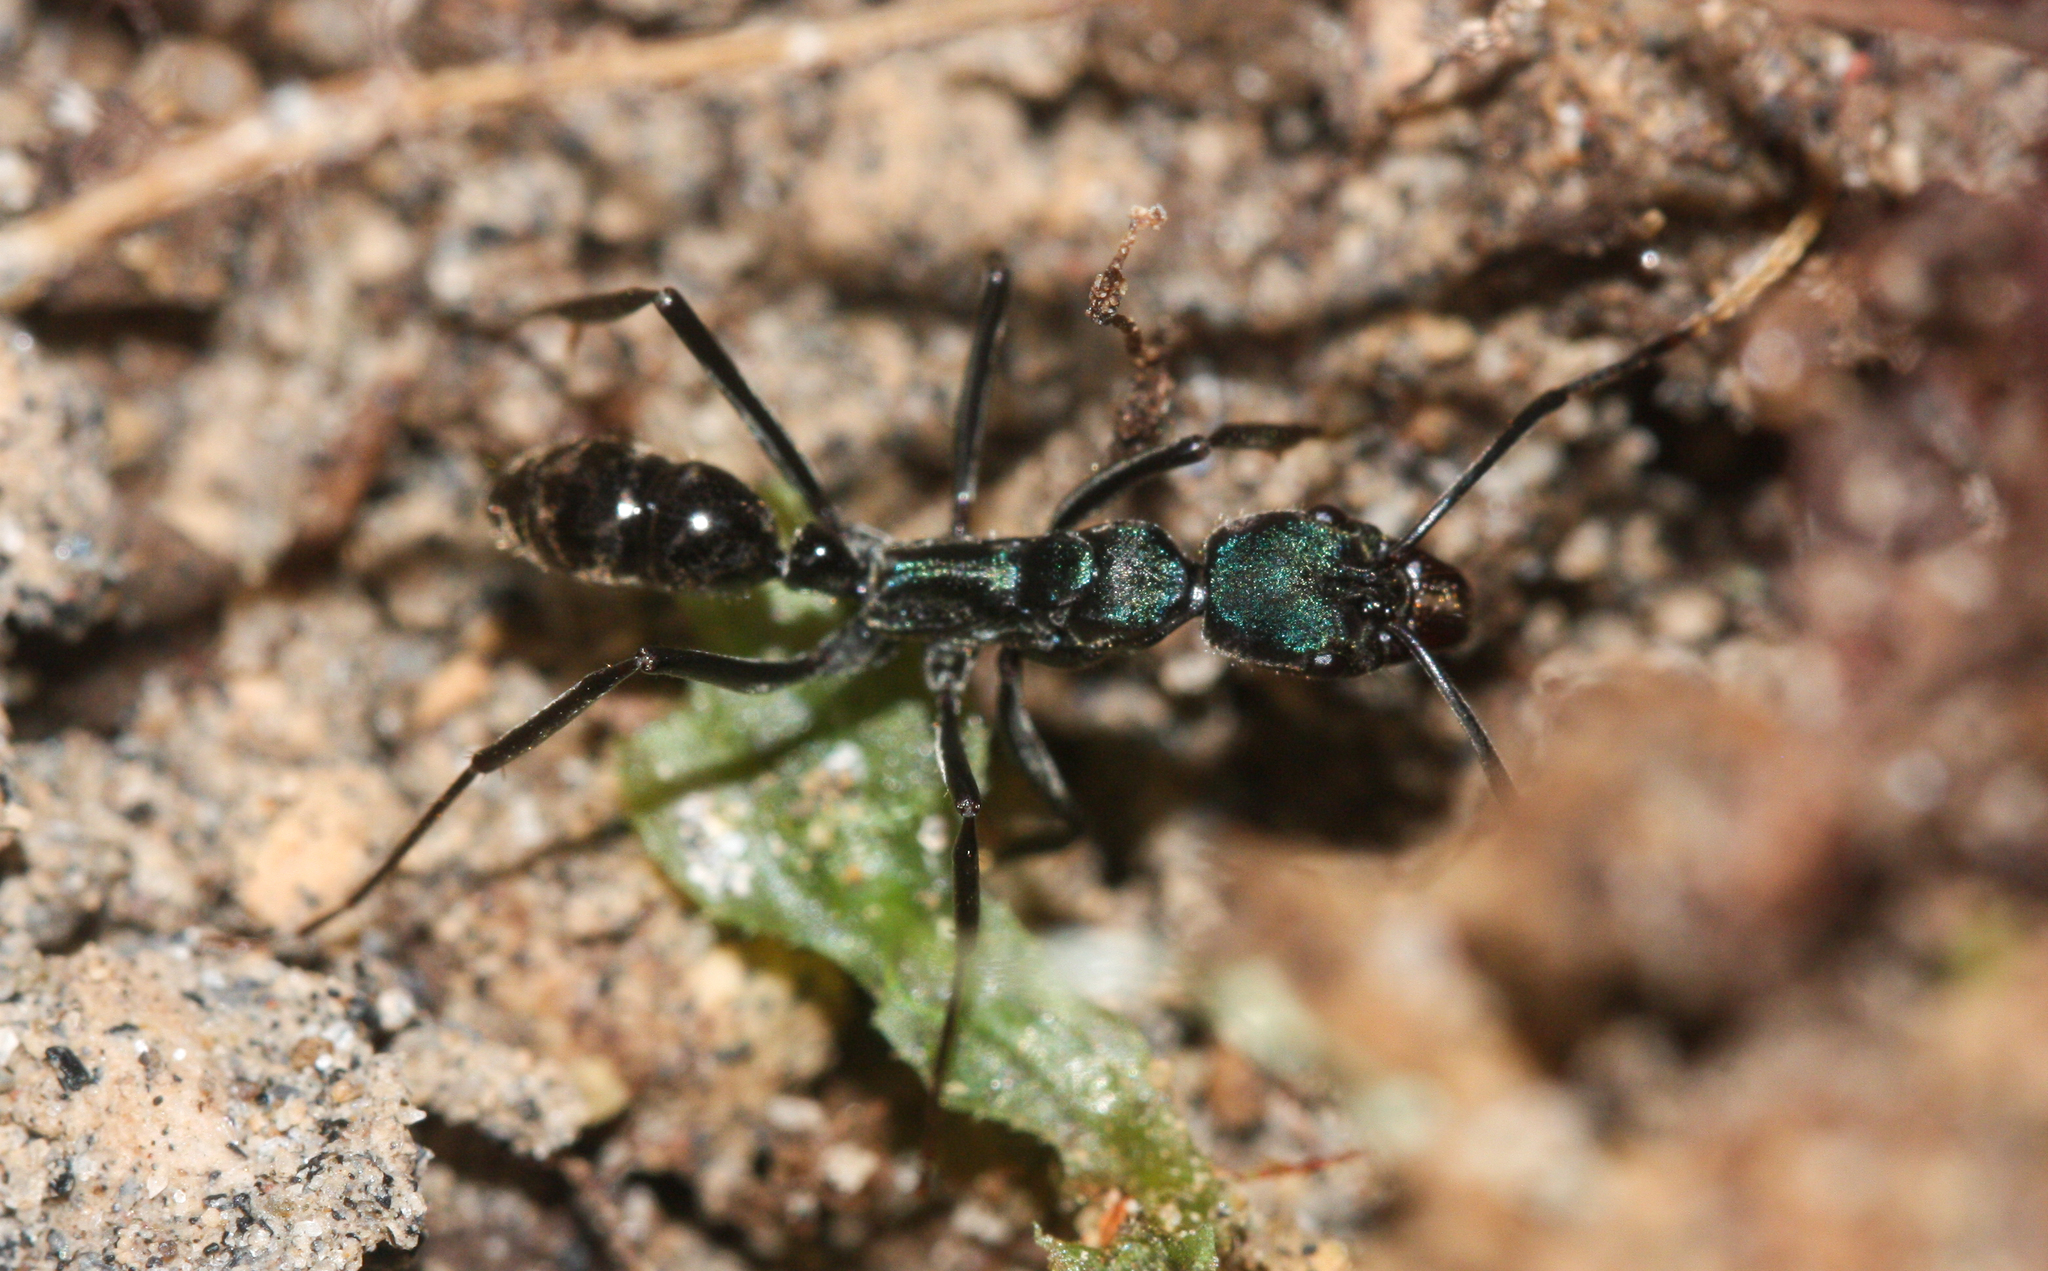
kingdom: Animalia
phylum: Arthropoda
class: Insecta
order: Hymenoptera
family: Formicidae
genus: Neoponera
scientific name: Neoponera
